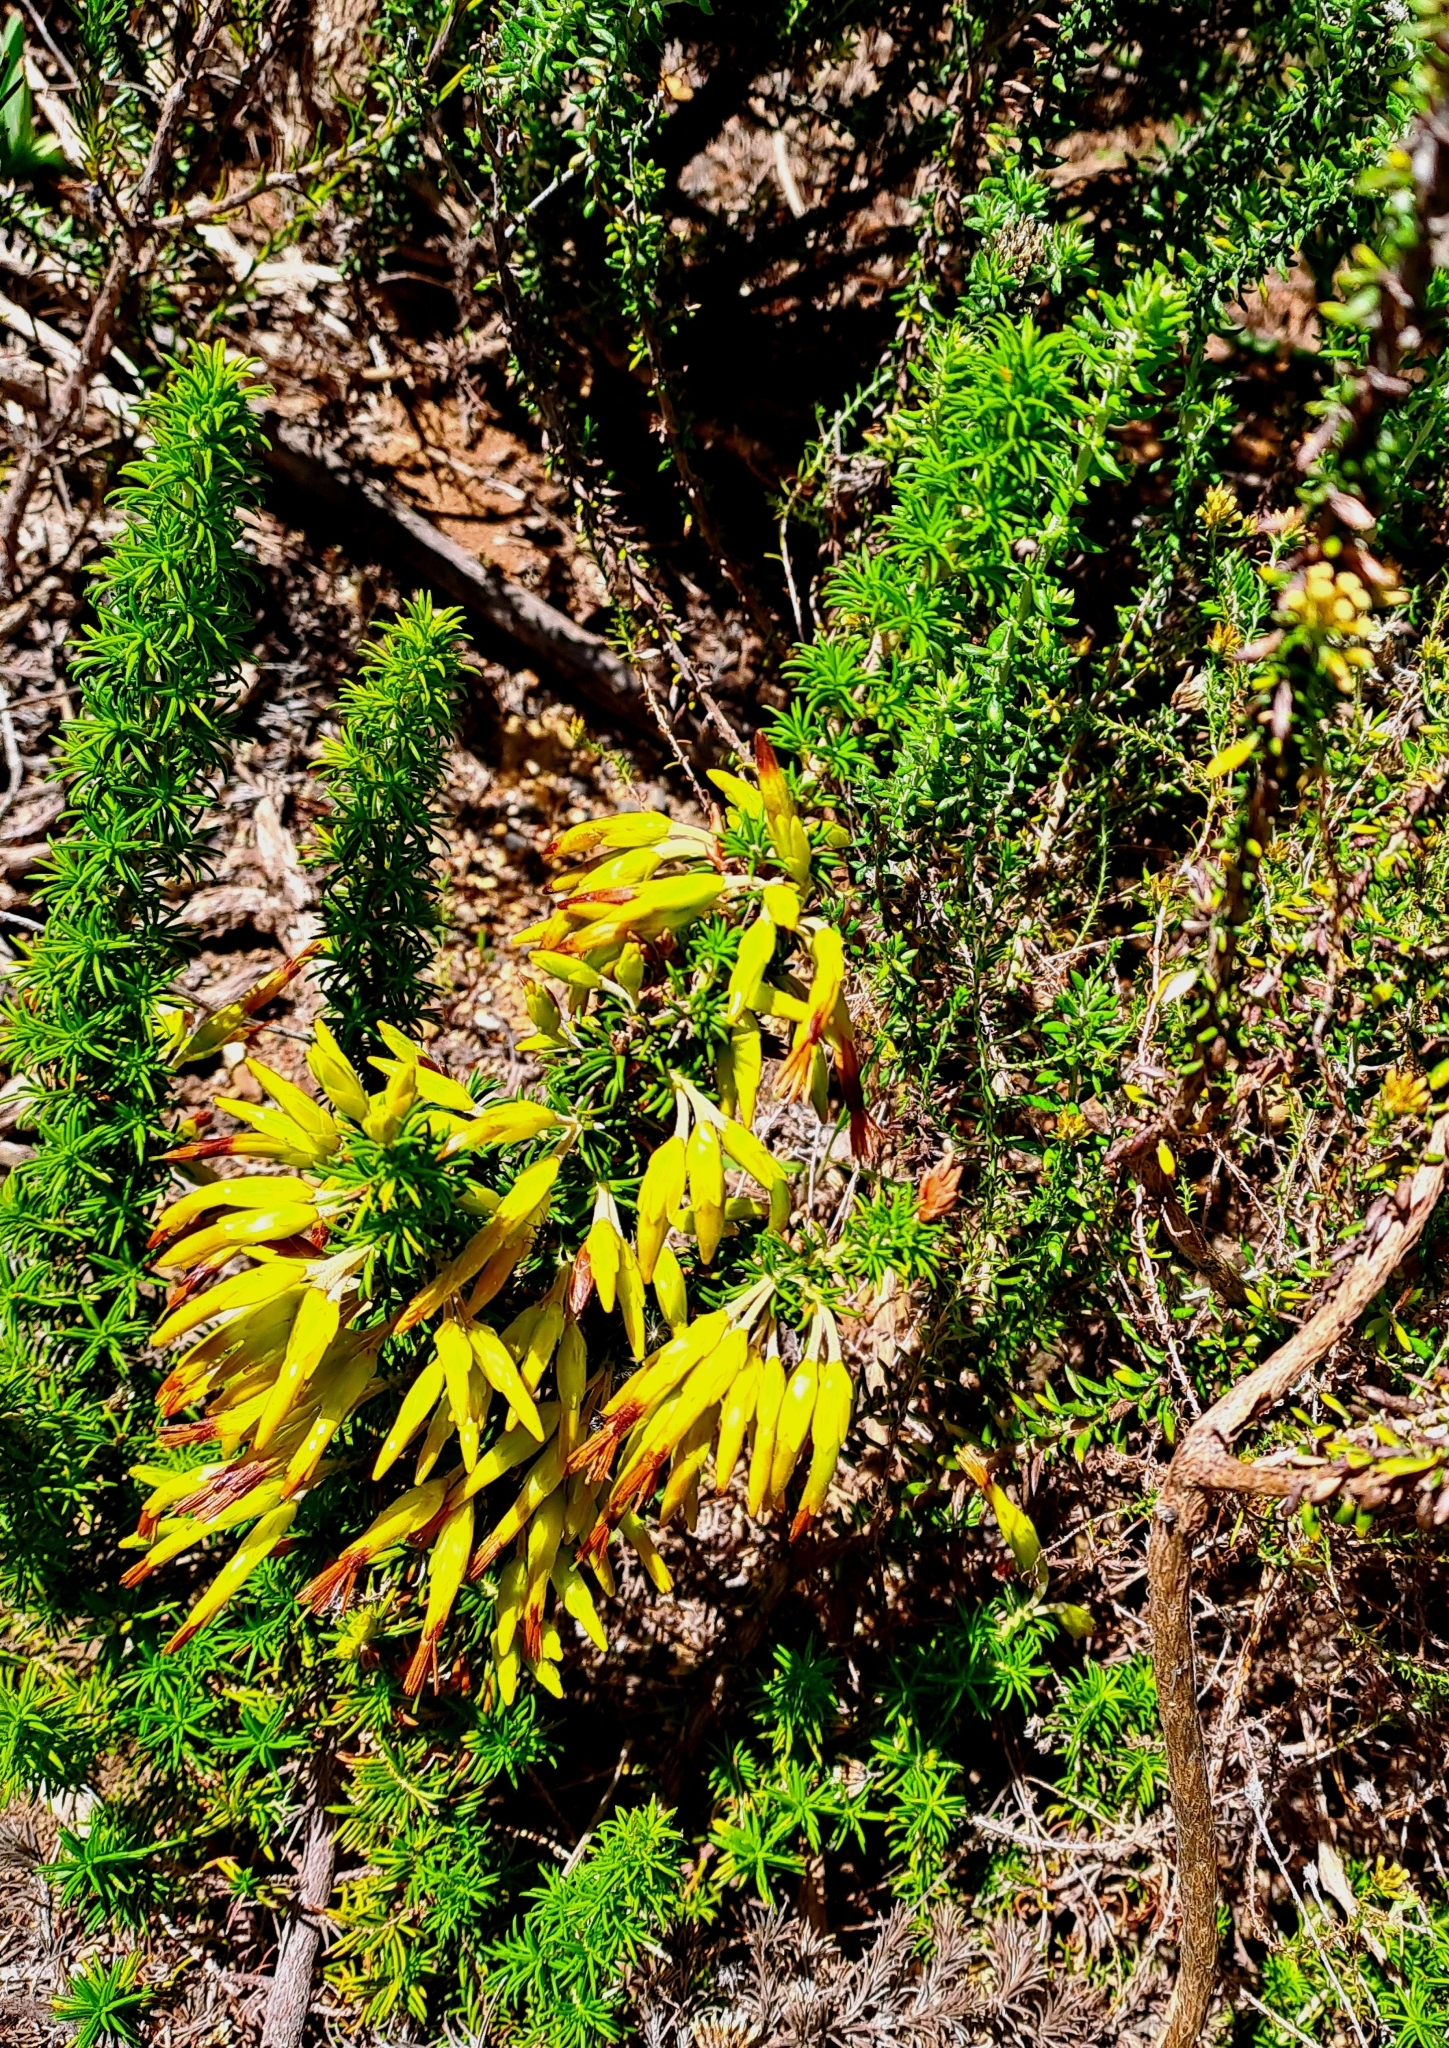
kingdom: Plantae
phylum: Tracheophyta
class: Magnoliopsida
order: Ericales
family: Ericaceae
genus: Erica
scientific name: Erica coccinea
